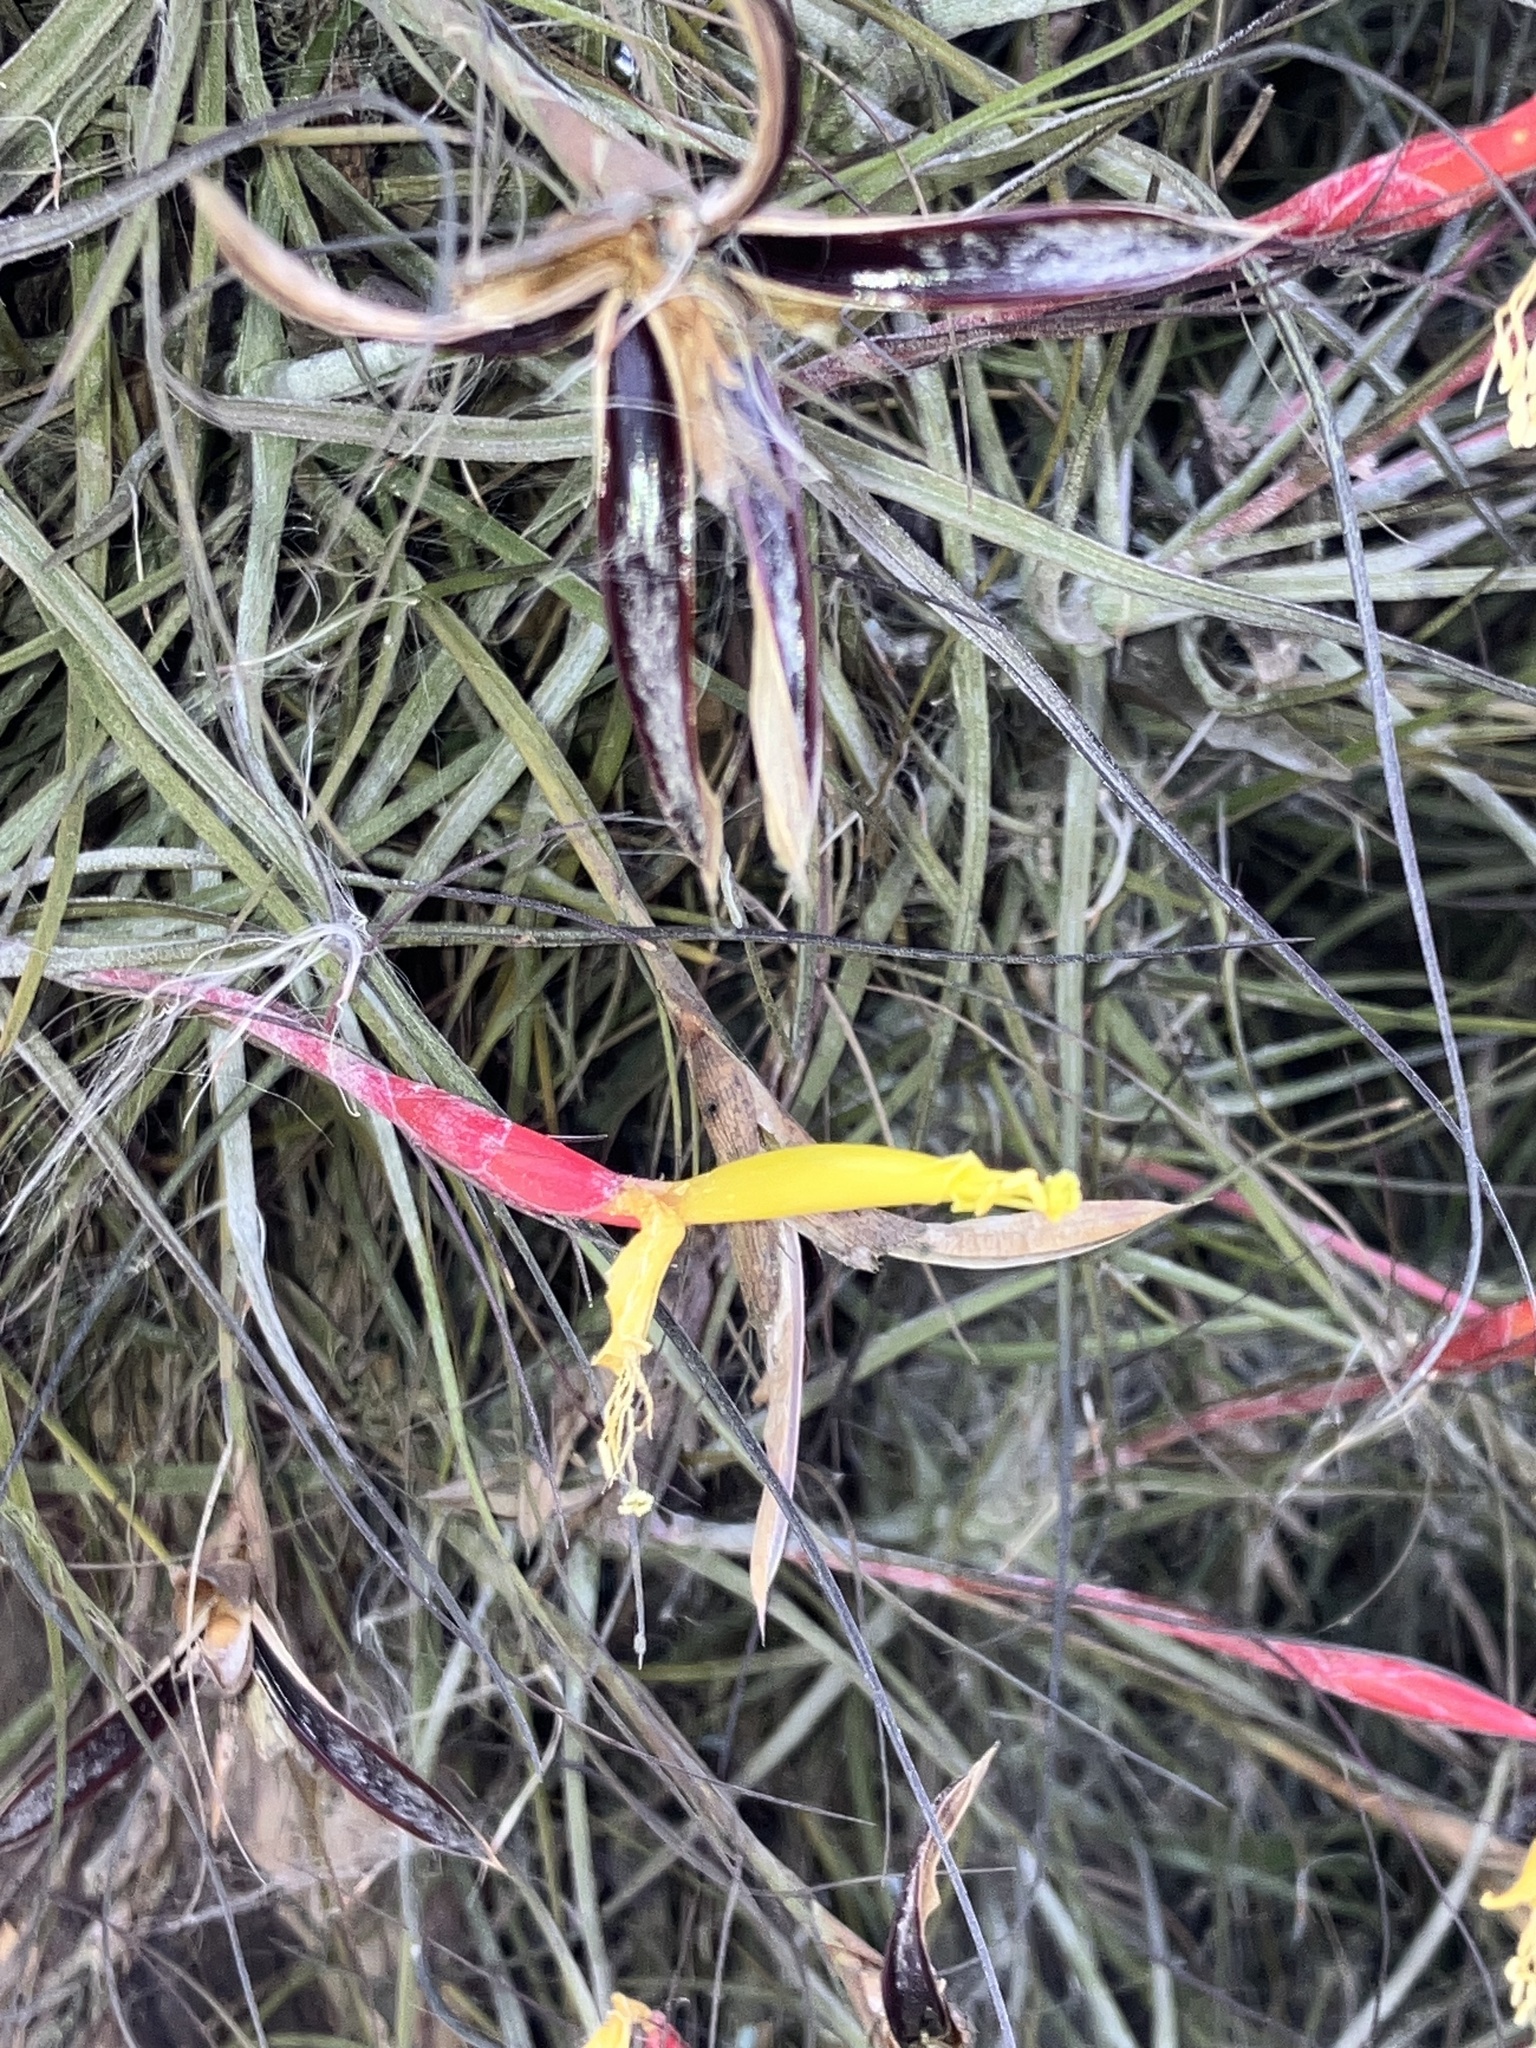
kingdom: Plantae
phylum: Tracheophyta
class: Liliopsida
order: Poales
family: Bromeliaceae
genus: Tillandsia
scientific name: Tillandsia schiedeana
